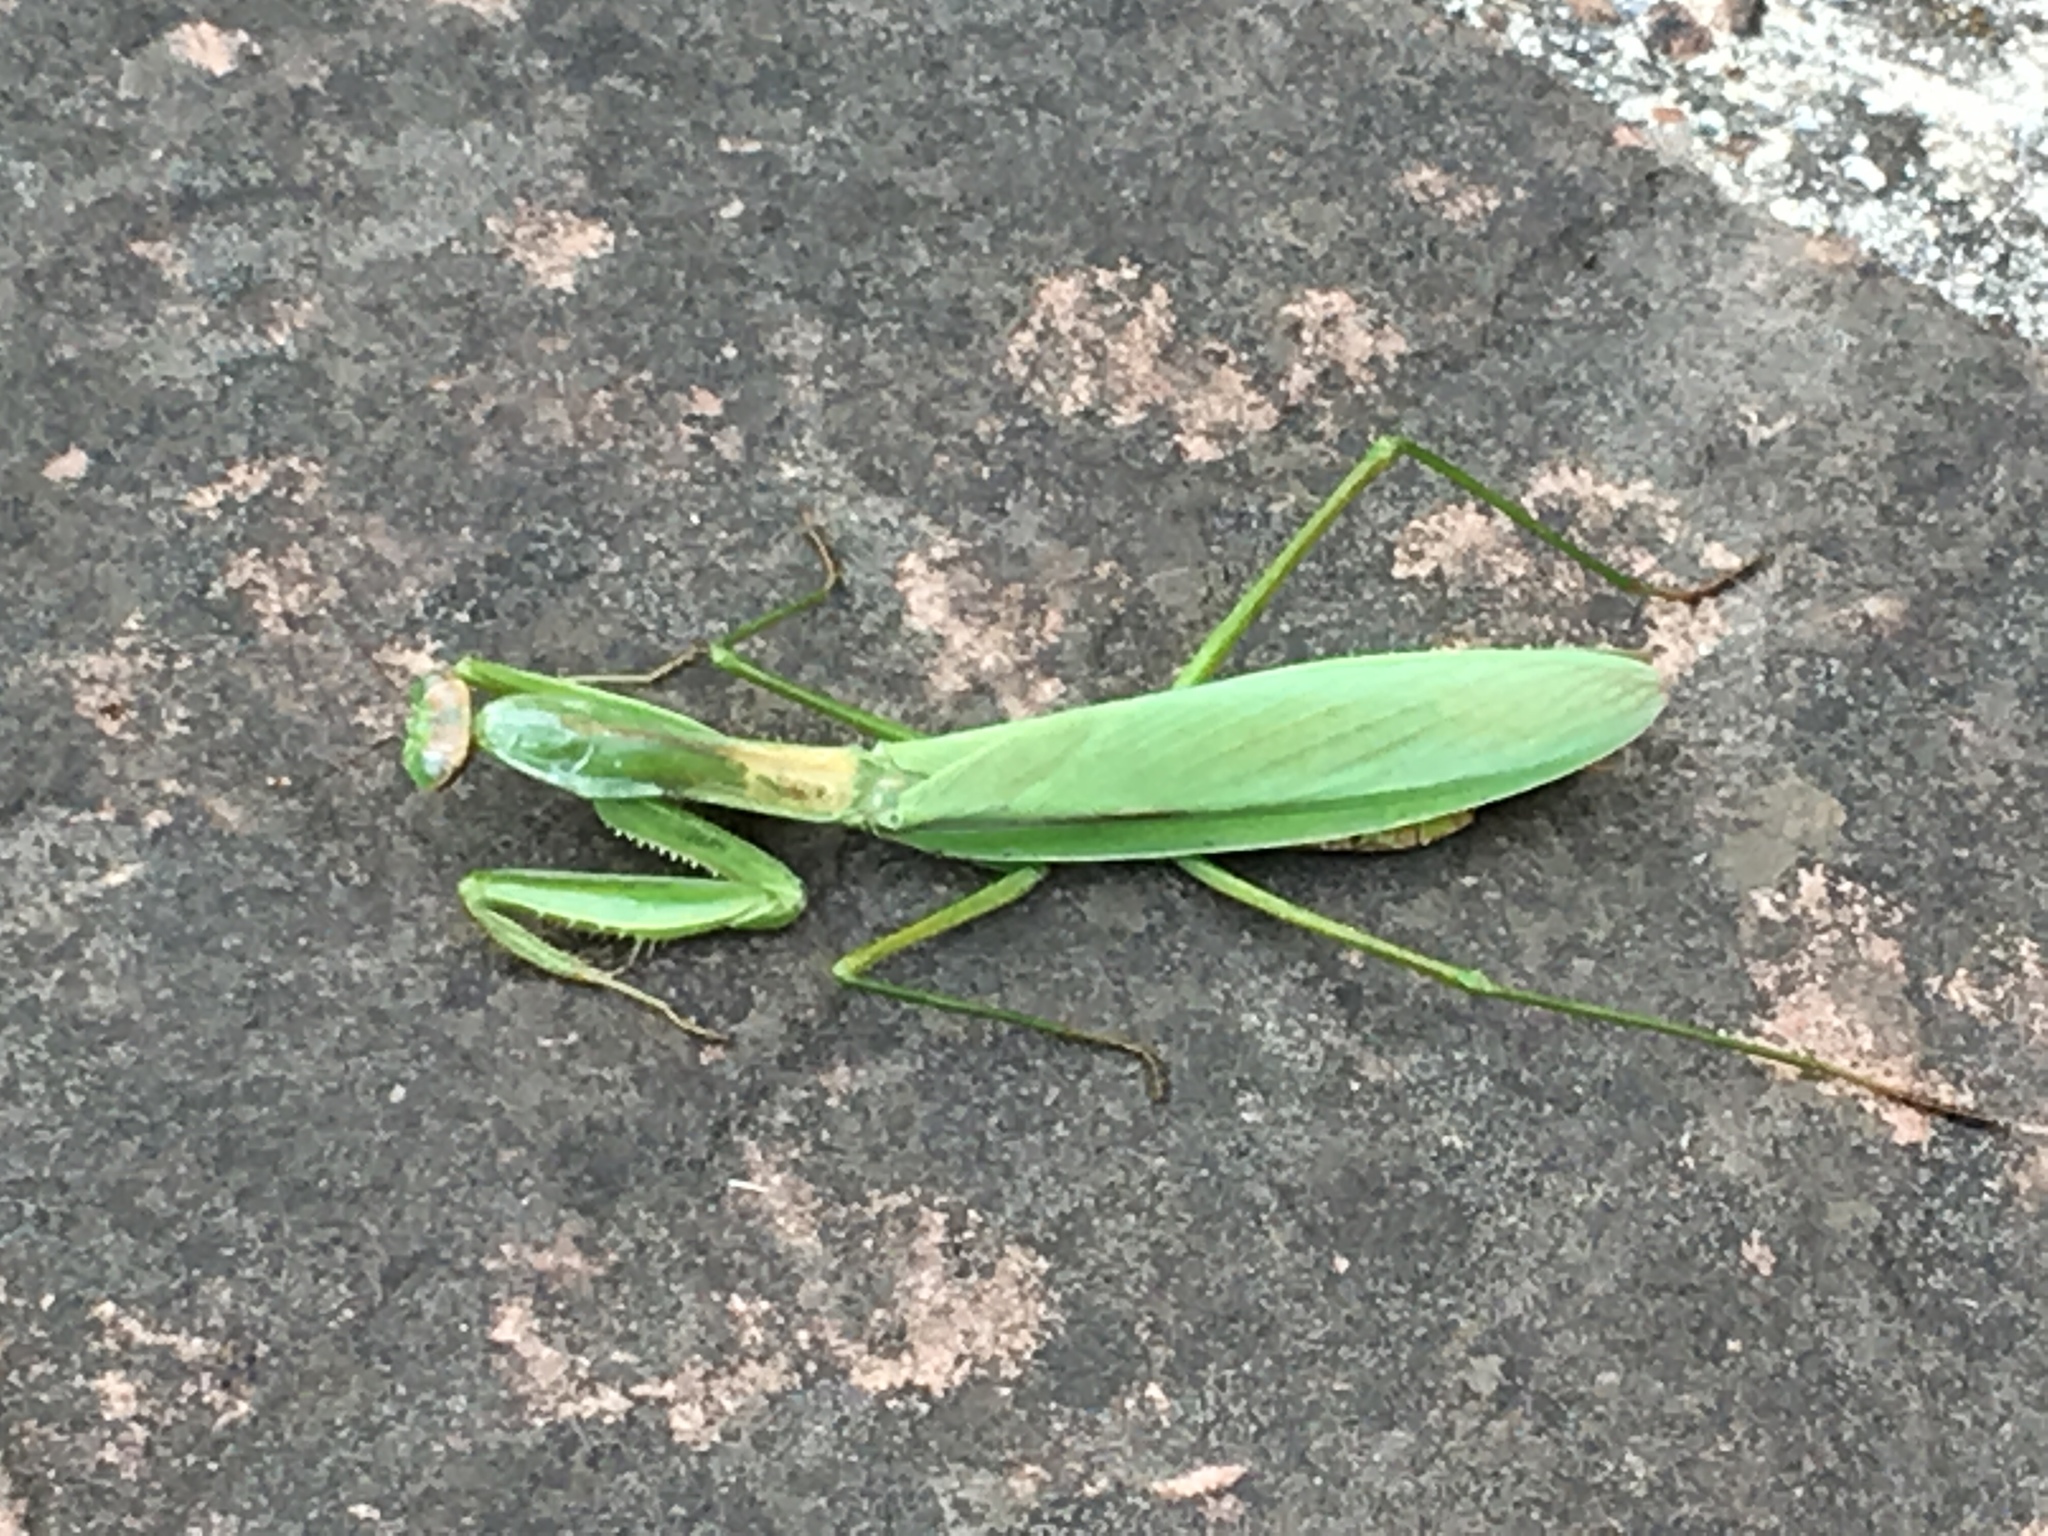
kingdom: Animalia
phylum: Arthropoda
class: Insecta
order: Mantodea
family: Mantidae
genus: Tenodera
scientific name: Tenodera sinensis
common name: Chinese mantis
